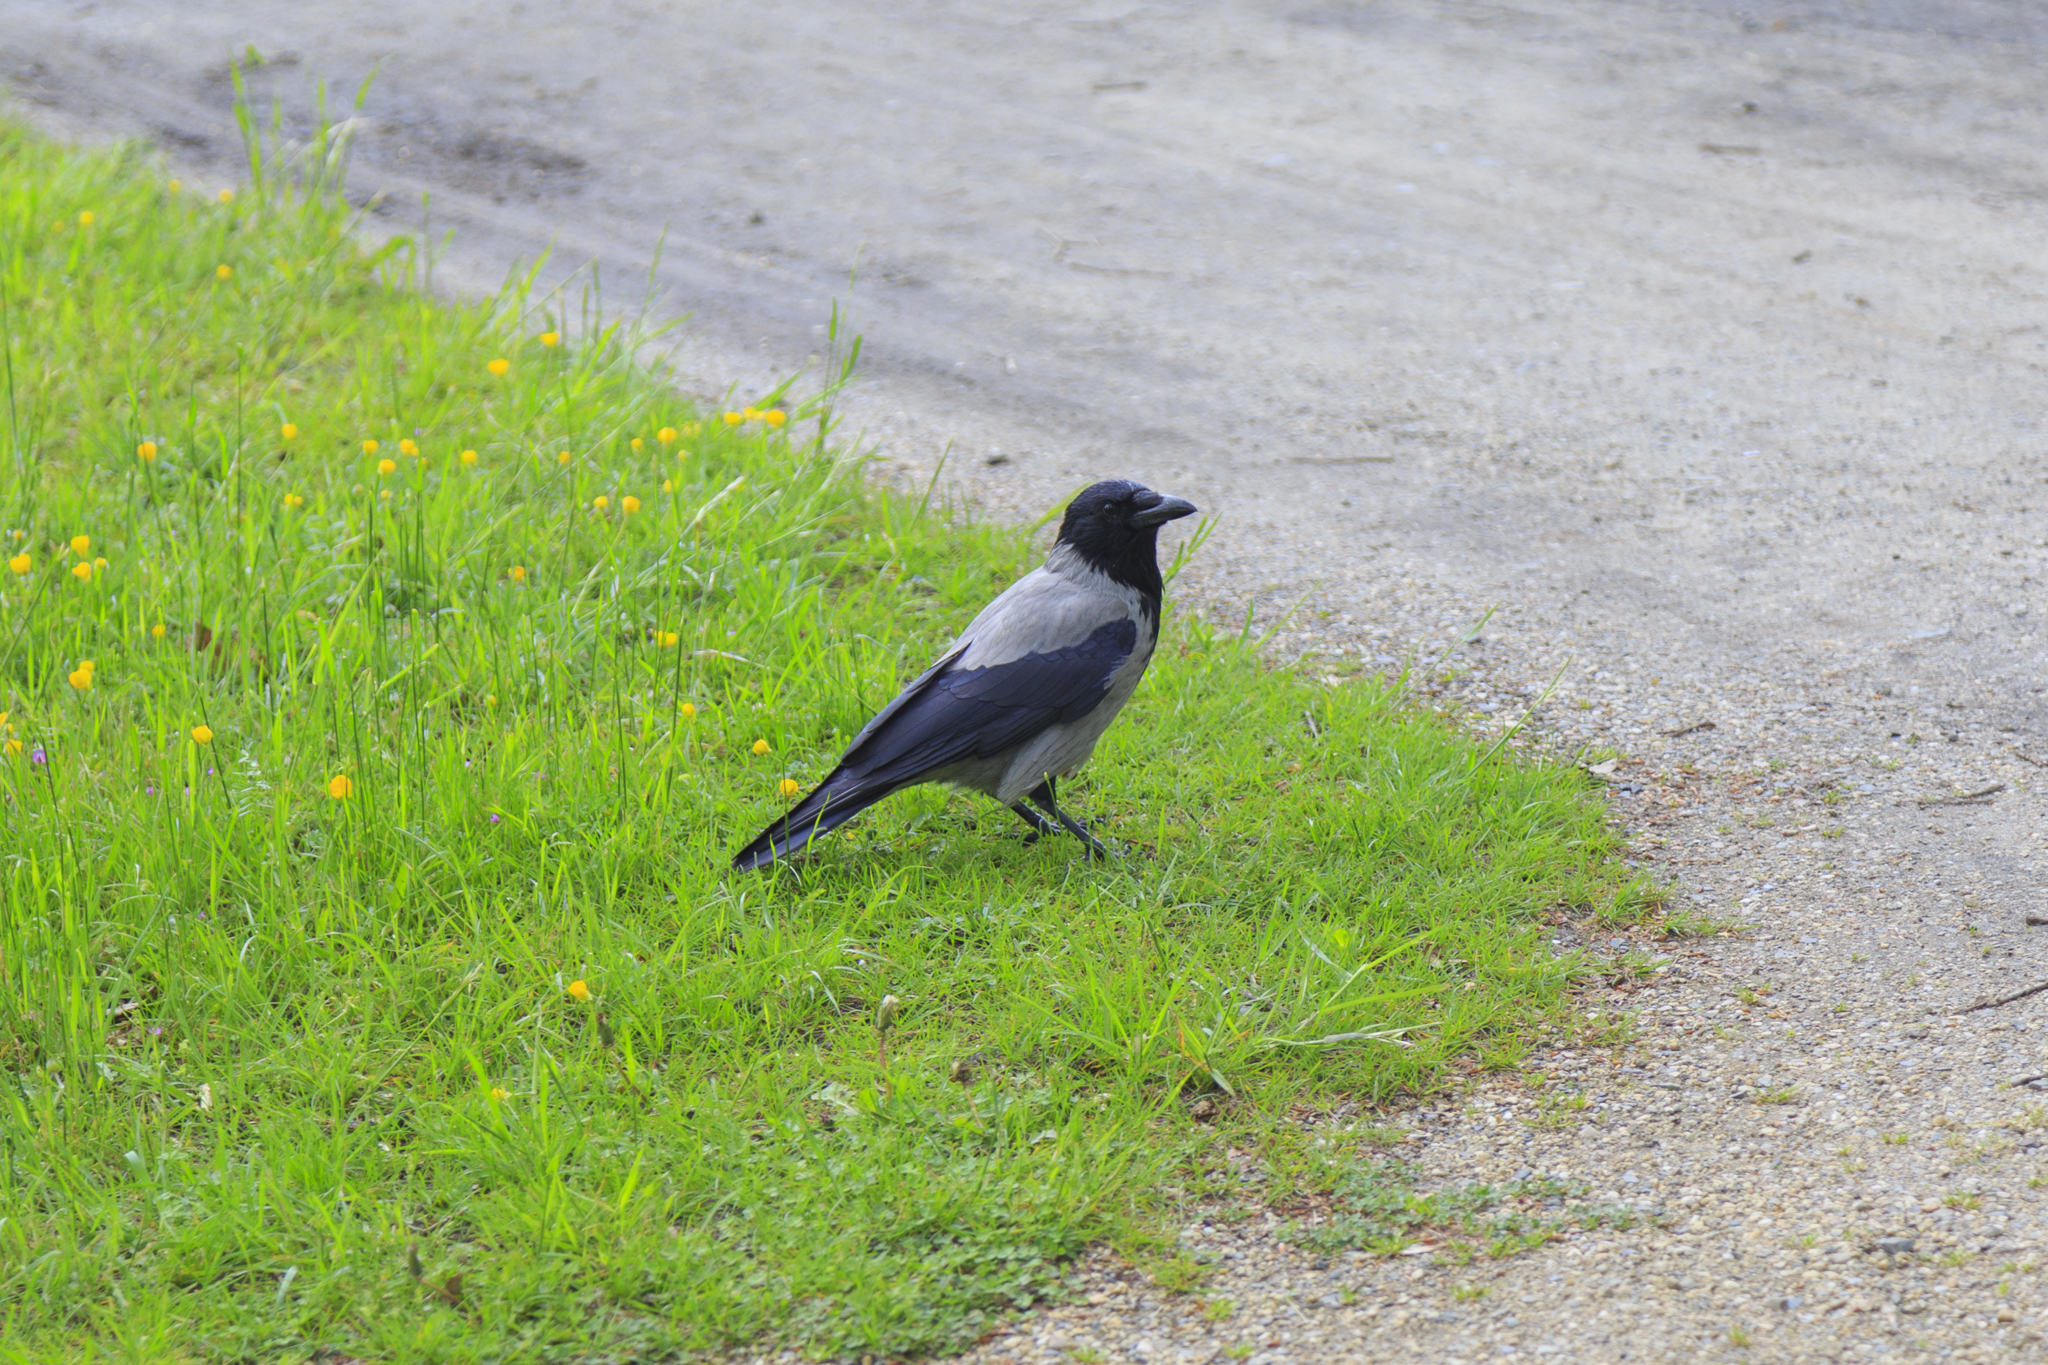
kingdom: Animalia
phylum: Chordata
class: Aves
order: Passeriformes
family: Corvidae
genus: Corvus
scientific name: Corvus cornix
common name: Hooded crow
